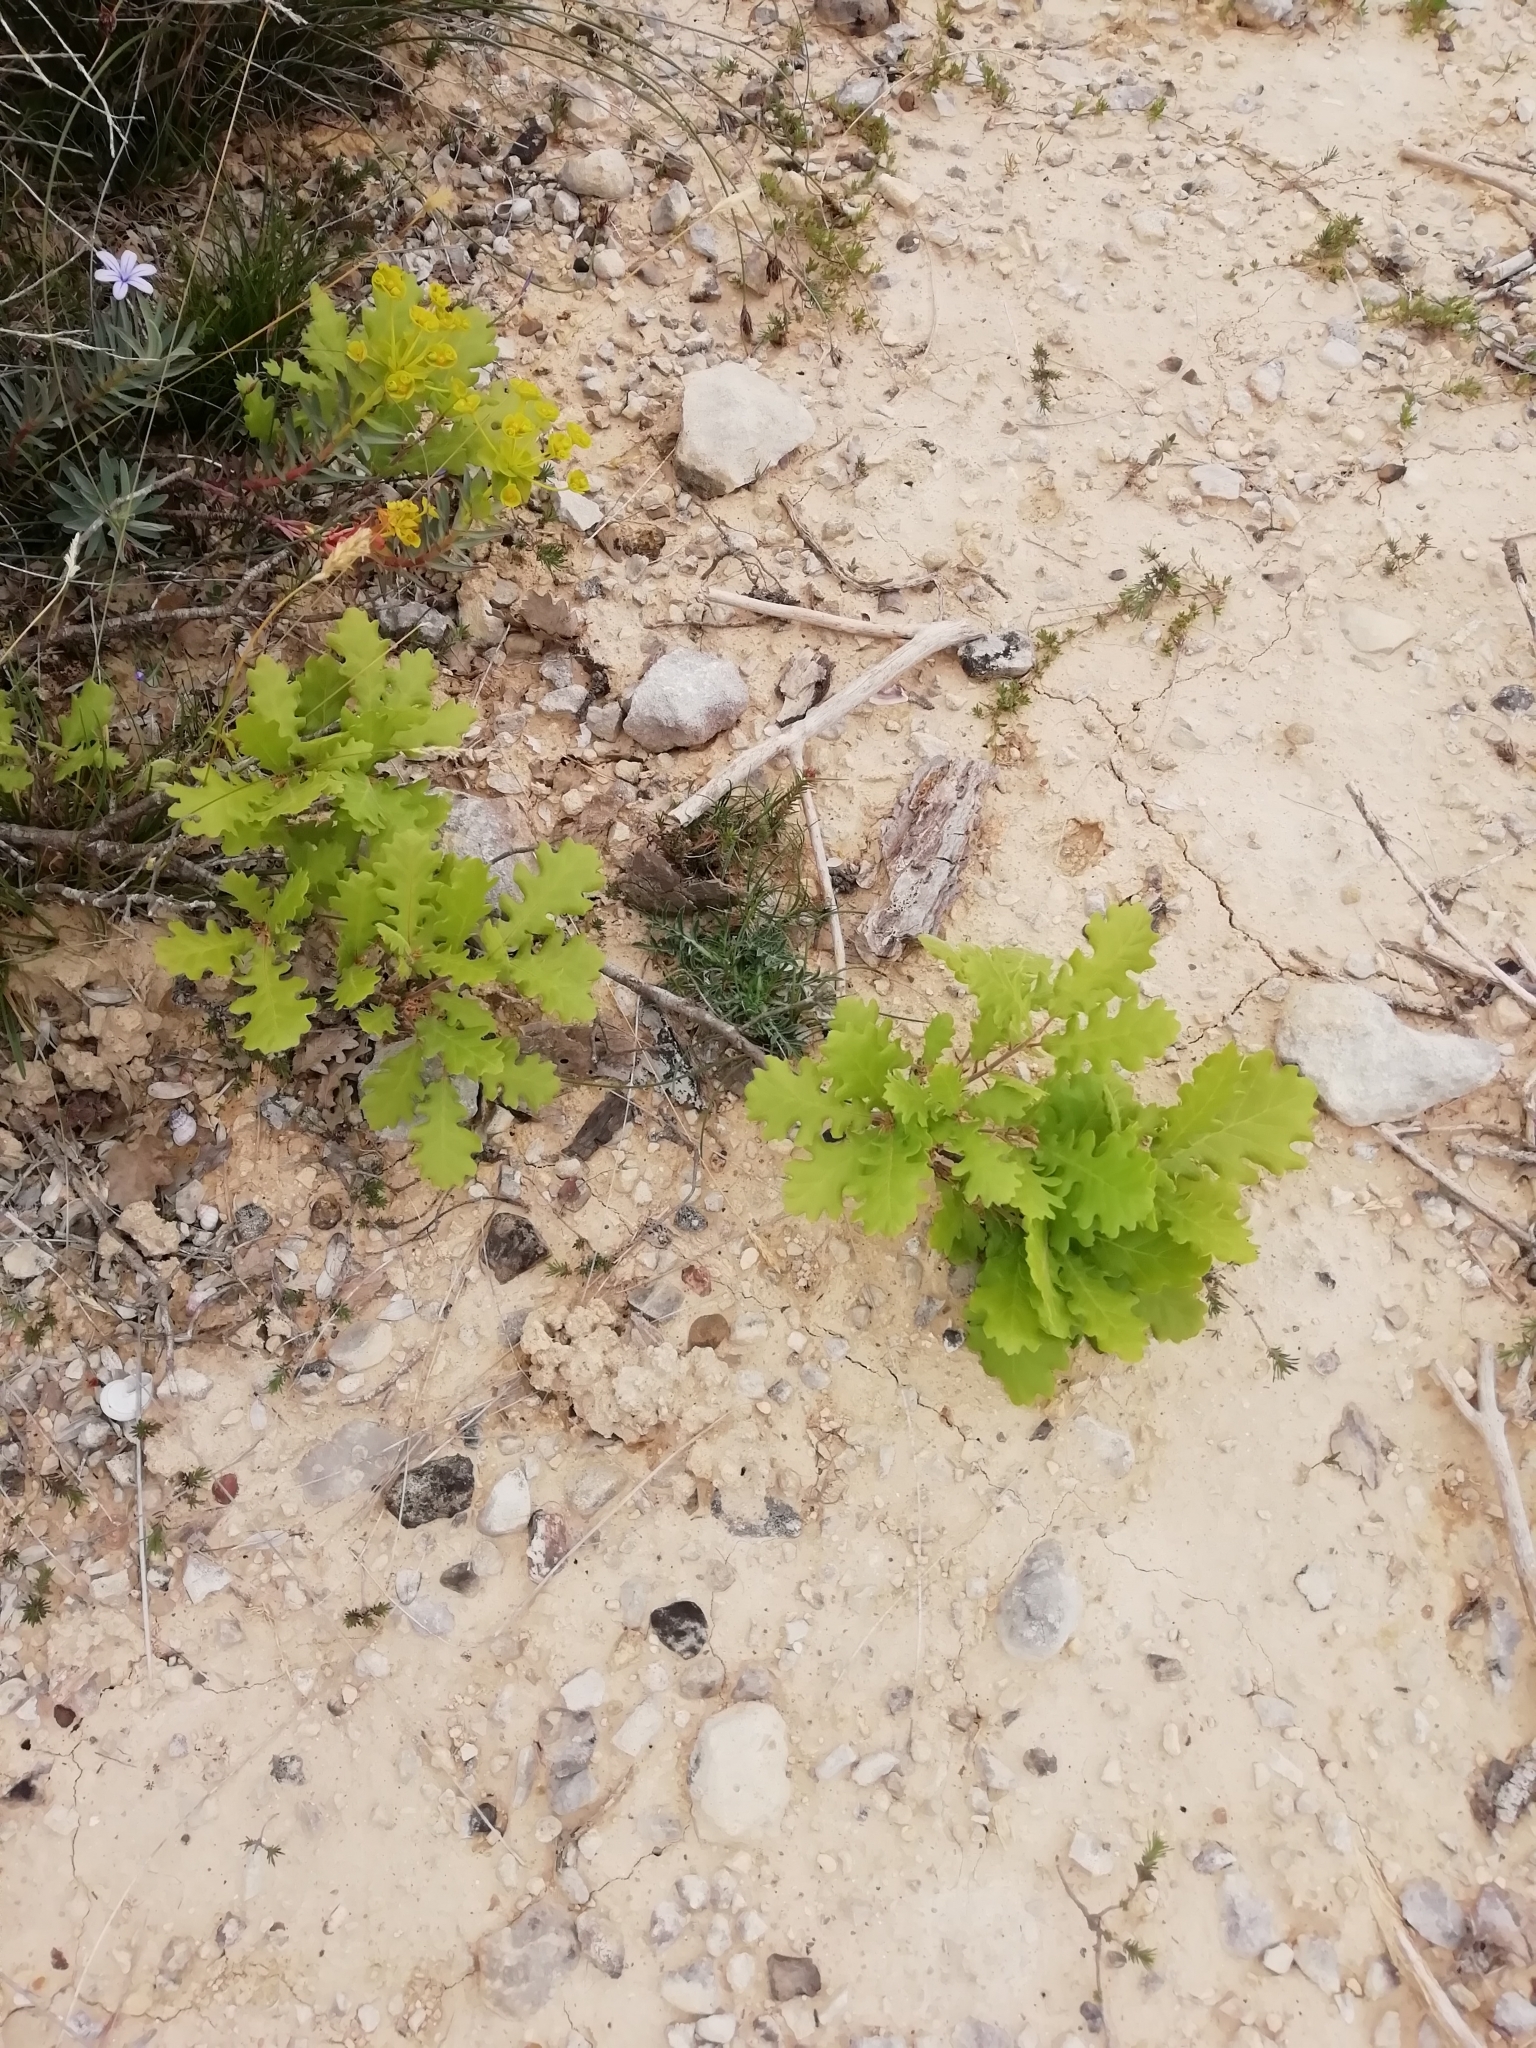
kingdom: Plantae
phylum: Tracheophyta
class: Magnoliopsida
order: Fagales
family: Fagaceae
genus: Quercus
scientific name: Quercus pubescens
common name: Downy oak
